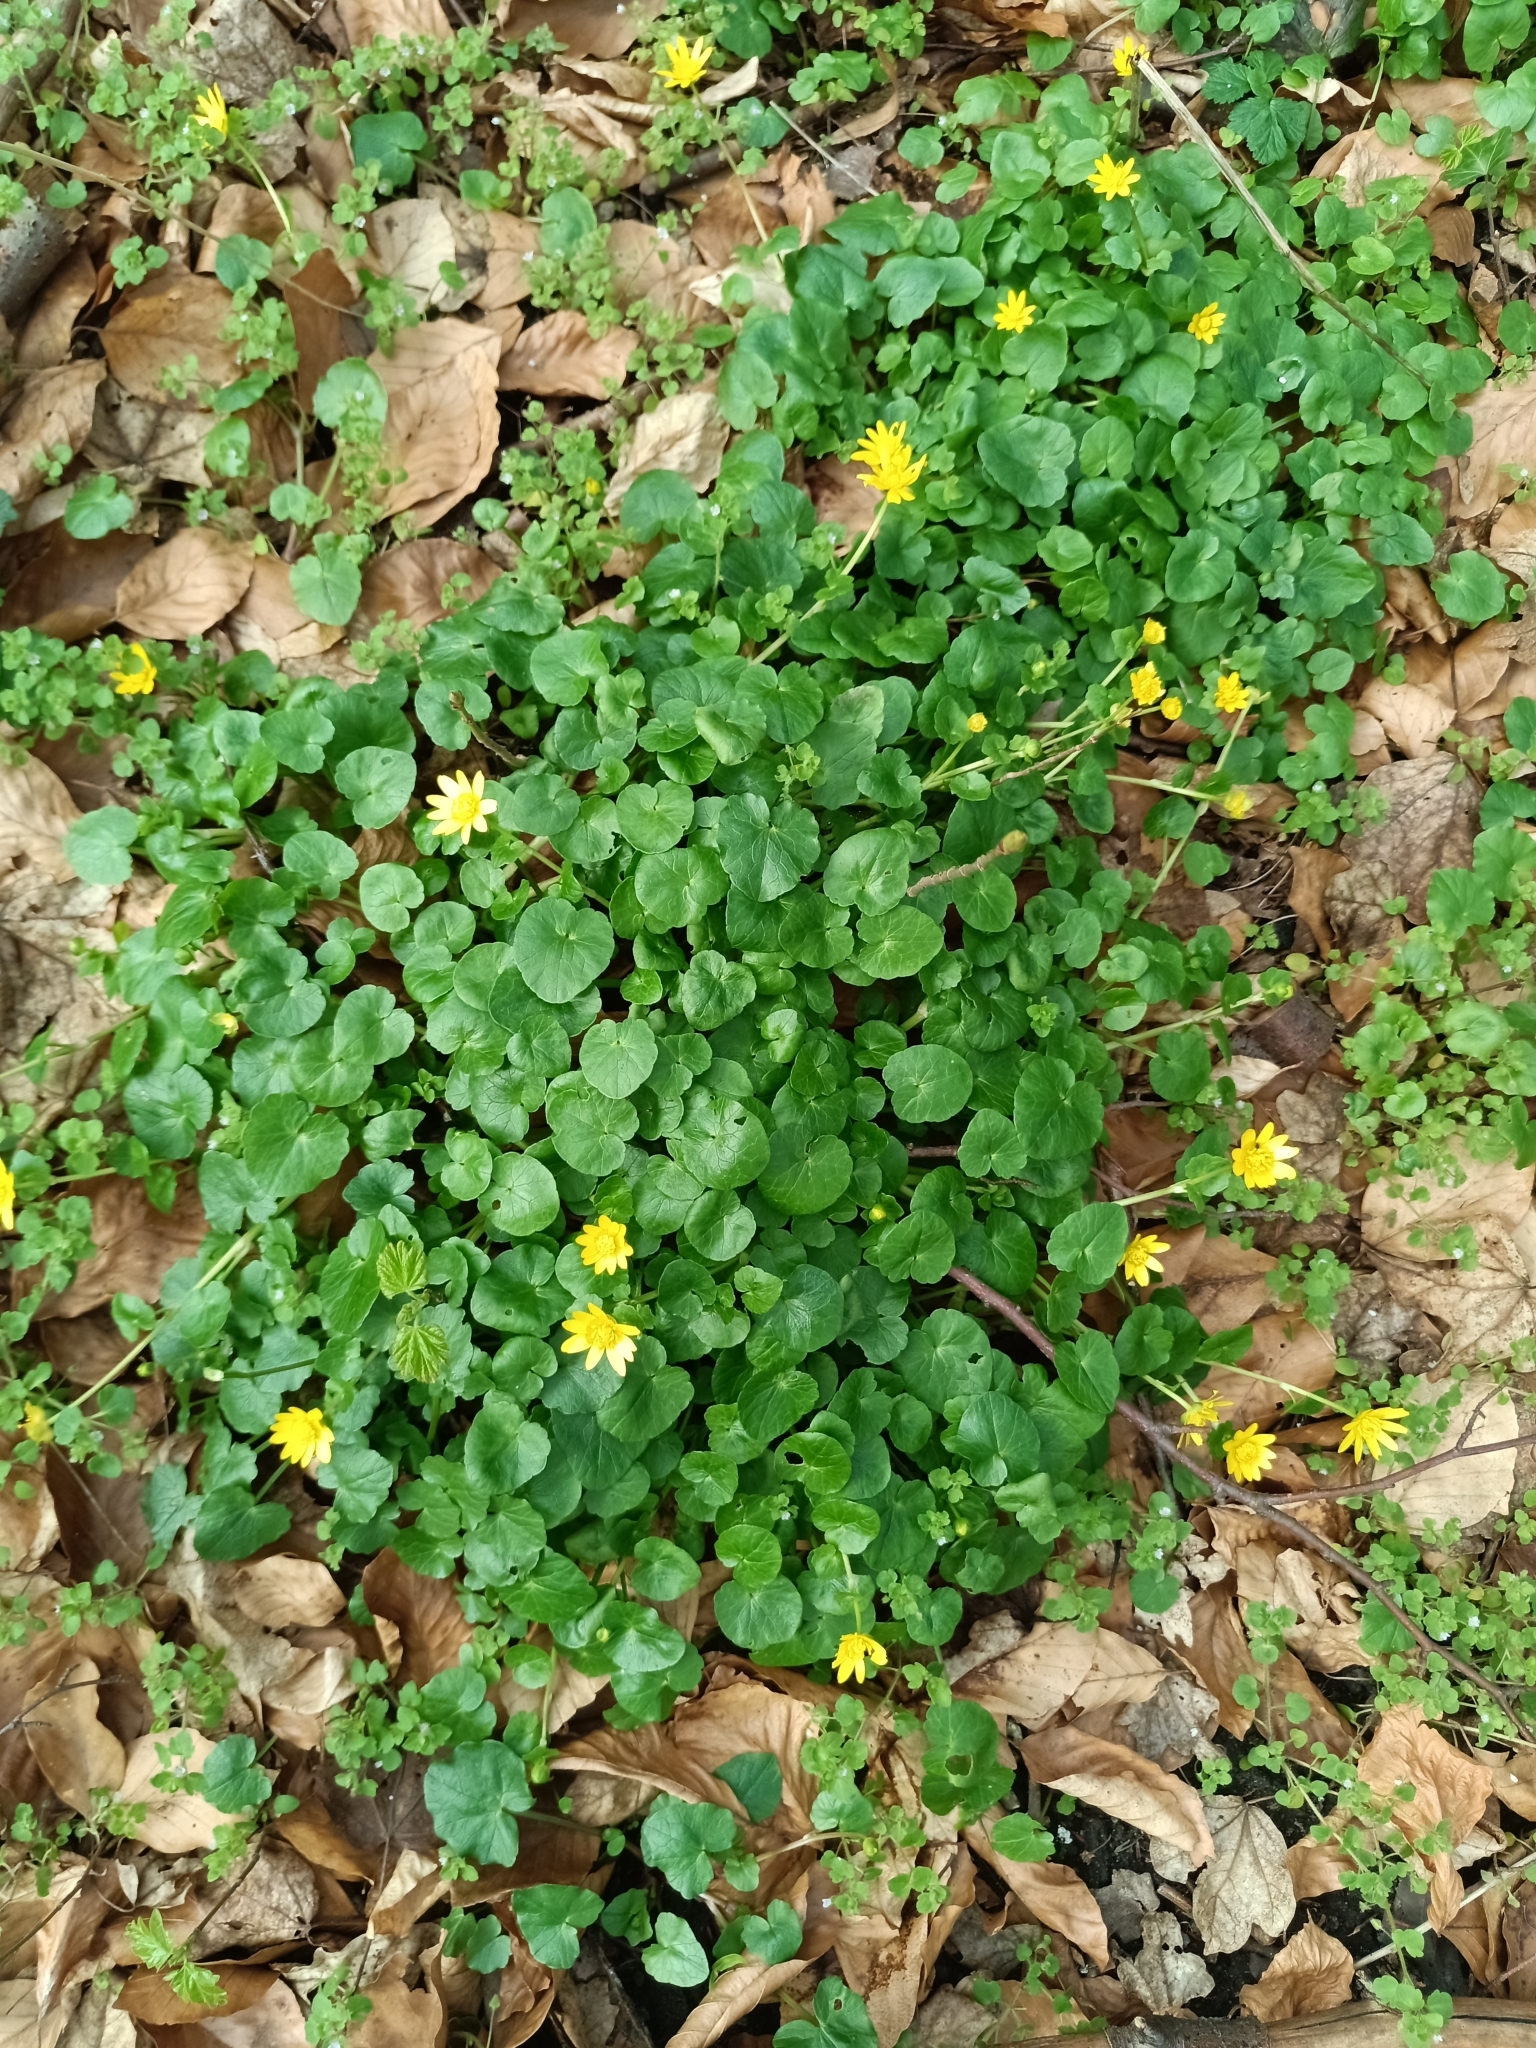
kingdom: Plantae
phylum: Tracheophyta
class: Magnoliopsida
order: Ranunculales
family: Ranunculaceae
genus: Ficaria
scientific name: Ficaria verna
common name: Lesser celandine
